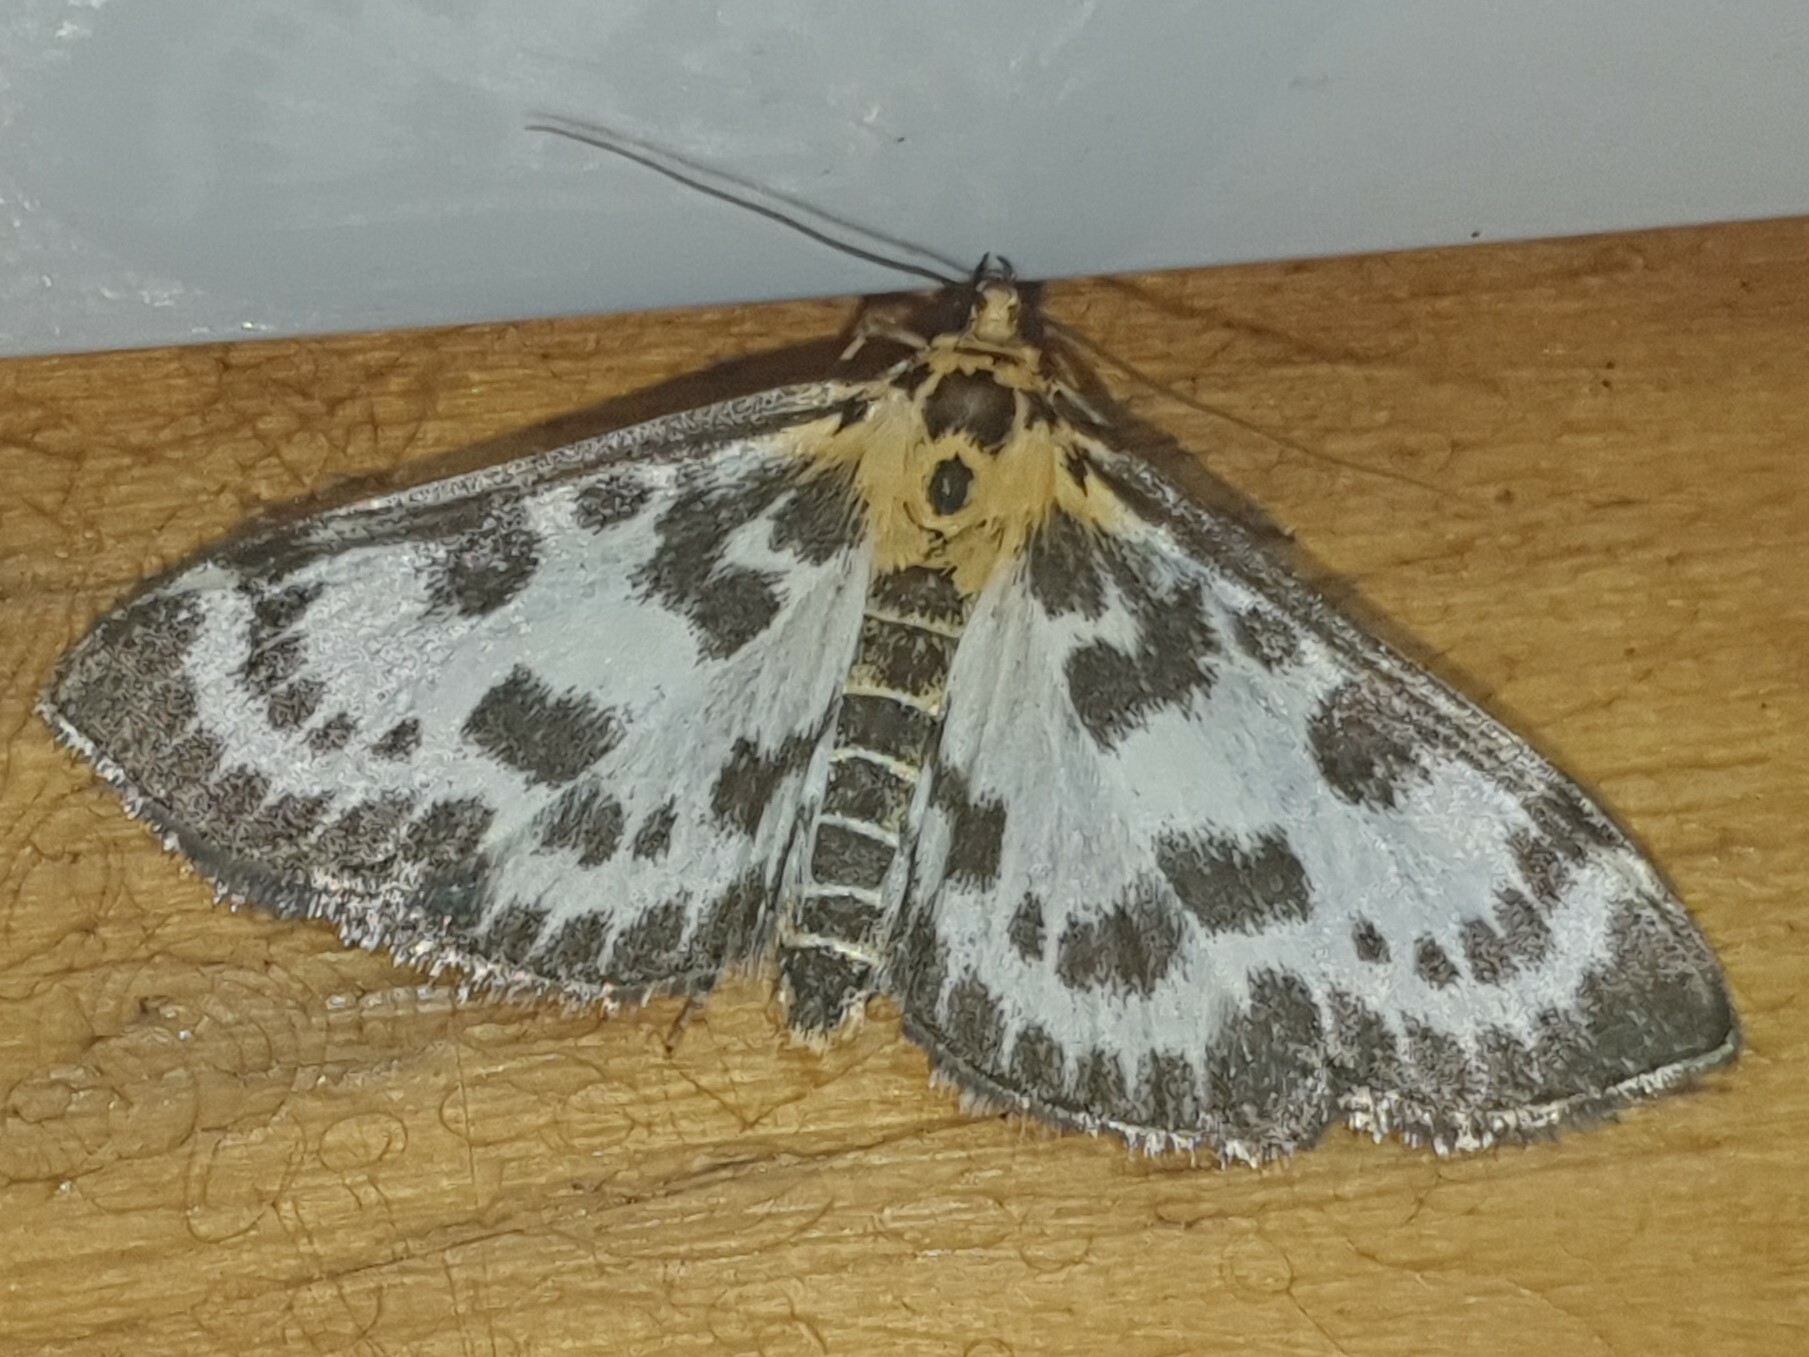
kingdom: Animalia
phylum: Arthropoda
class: Insecta
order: Lepidoptera
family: Crambidae
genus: Anania
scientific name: Anania hortulata
